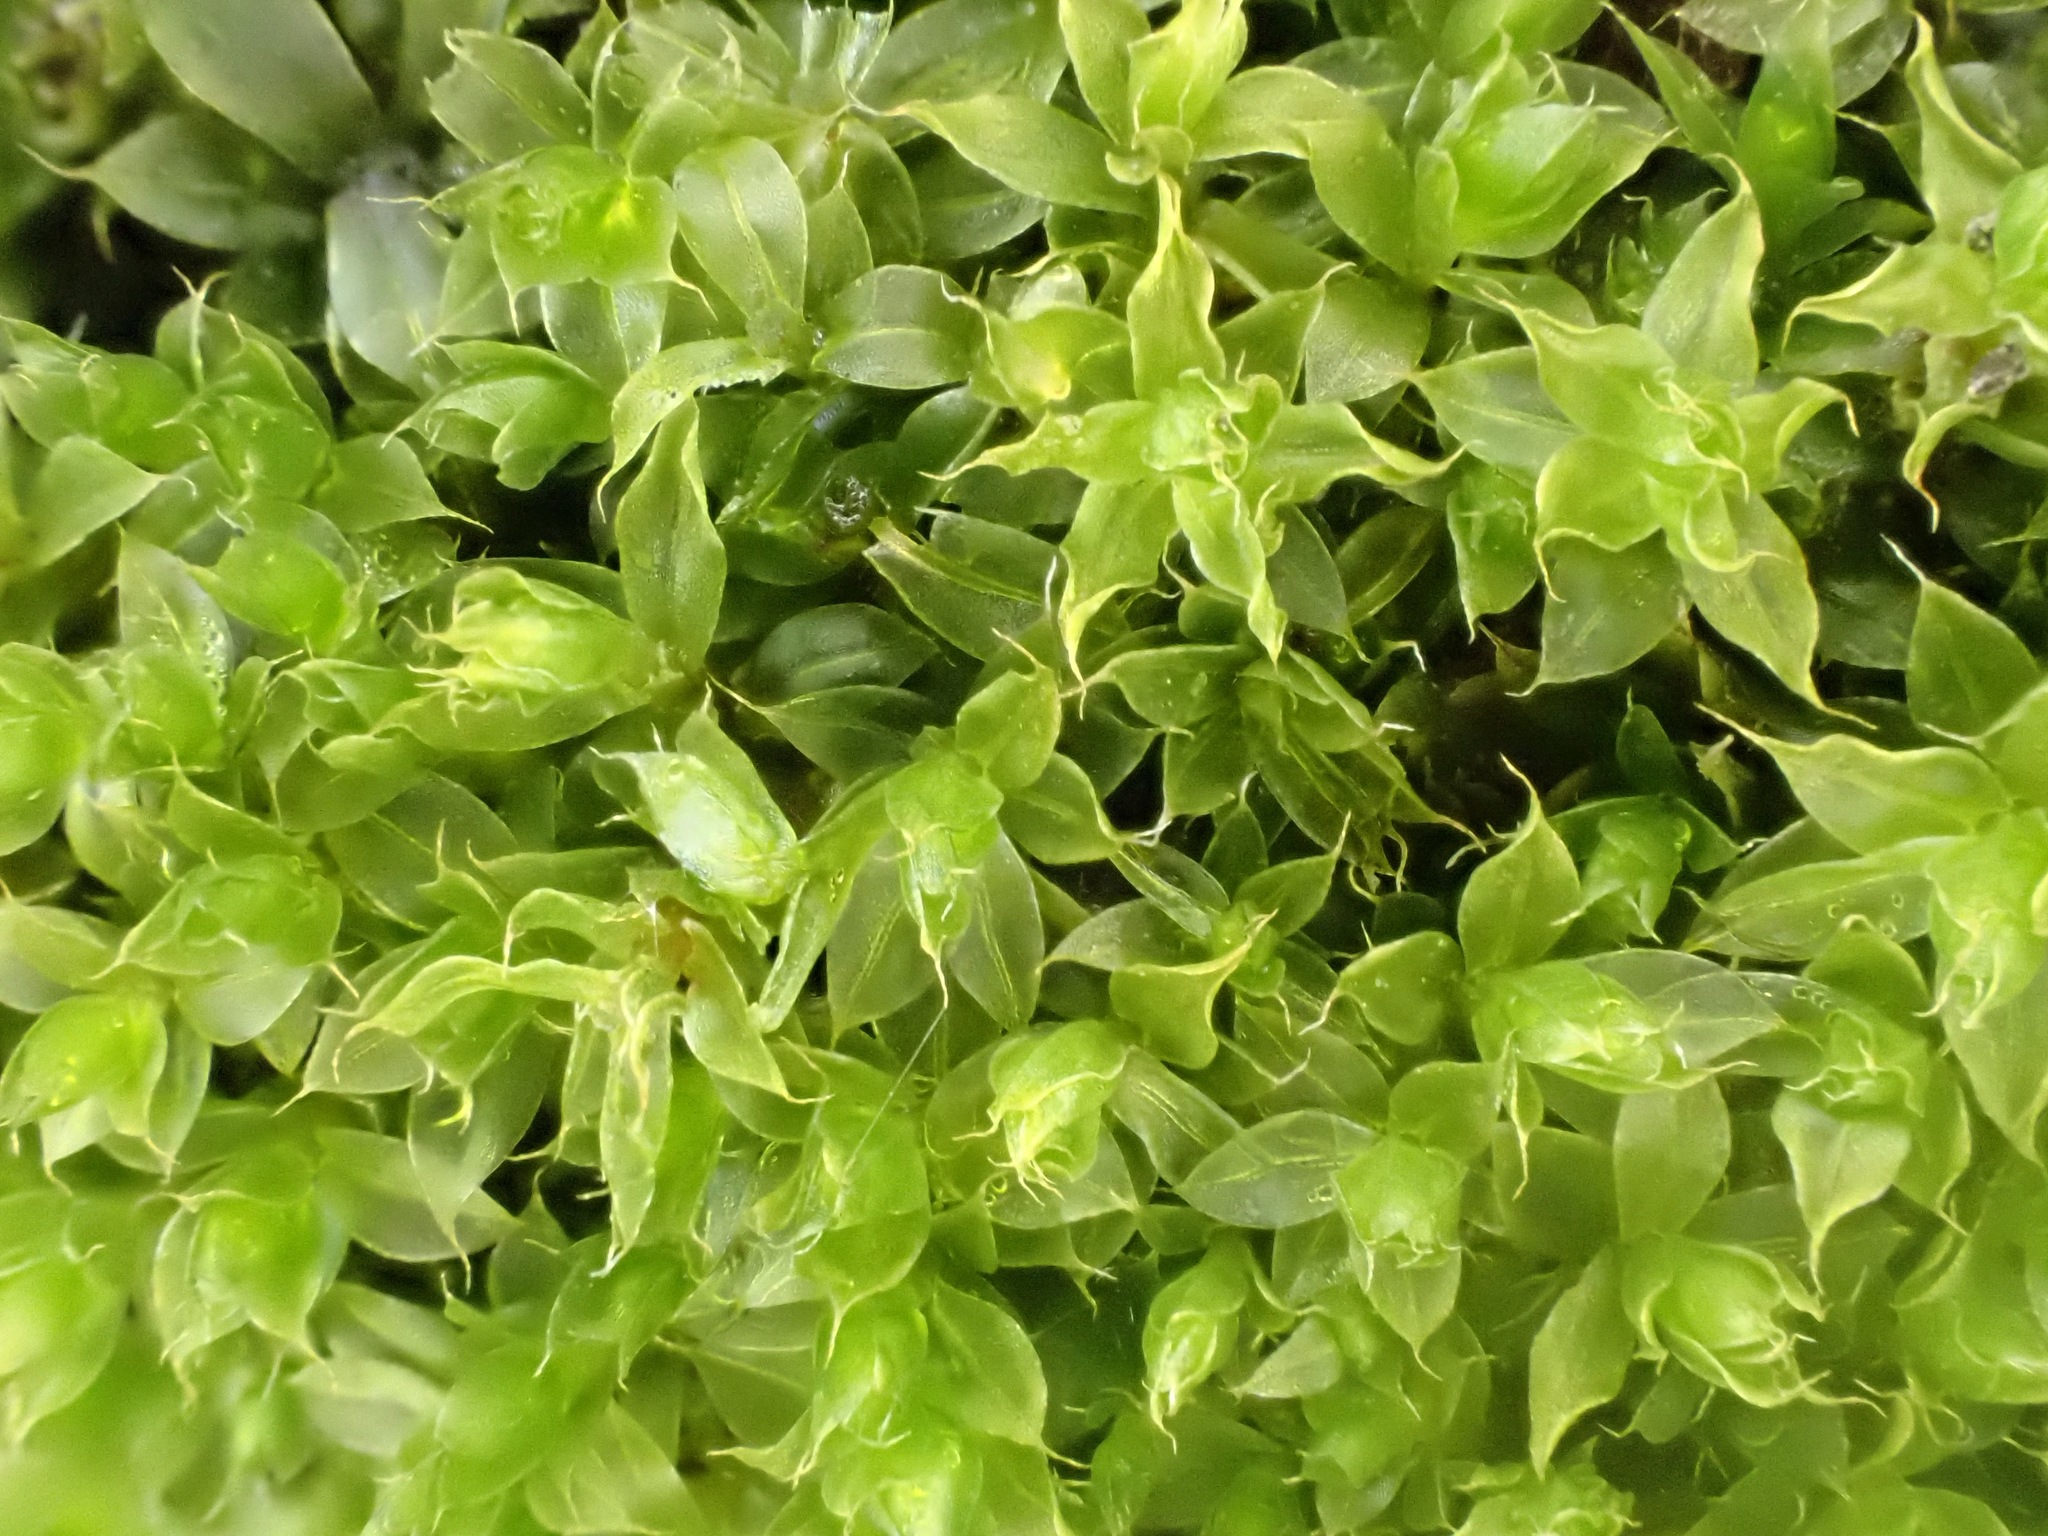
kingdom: Plantae
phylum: Bryophyta
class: Bryopsida
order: Bryales
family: Bryaceae
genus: Rosulabryum
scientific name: Rosulabryum capillare
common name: Capillary thread-moss
